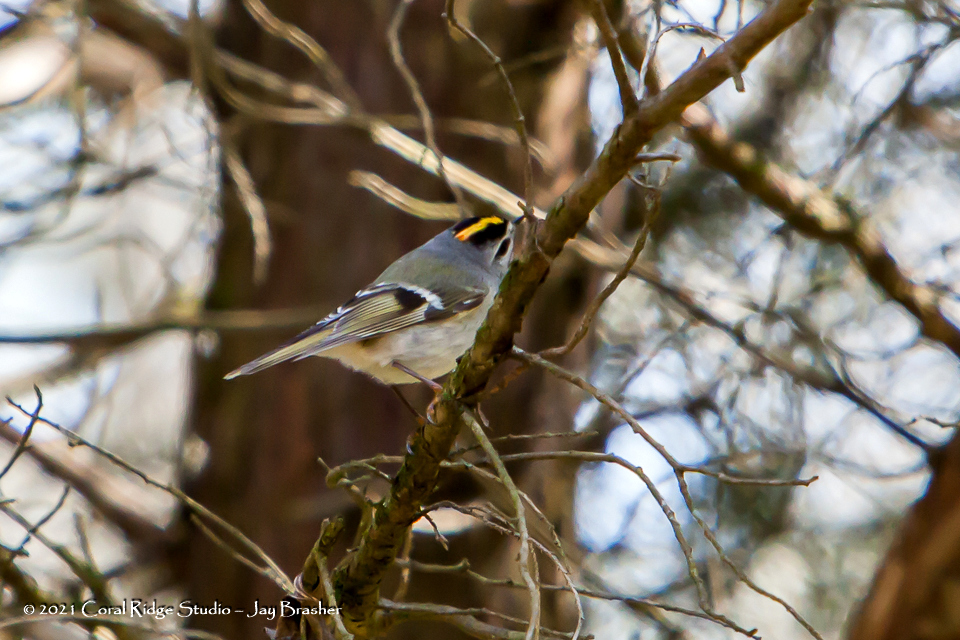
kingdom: Animalia
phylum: Chordata
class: Aves
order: Passeriformes
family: Regulidae
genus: Regulus
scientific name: Regulus satrapa
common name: Golden-crowned kinglet
